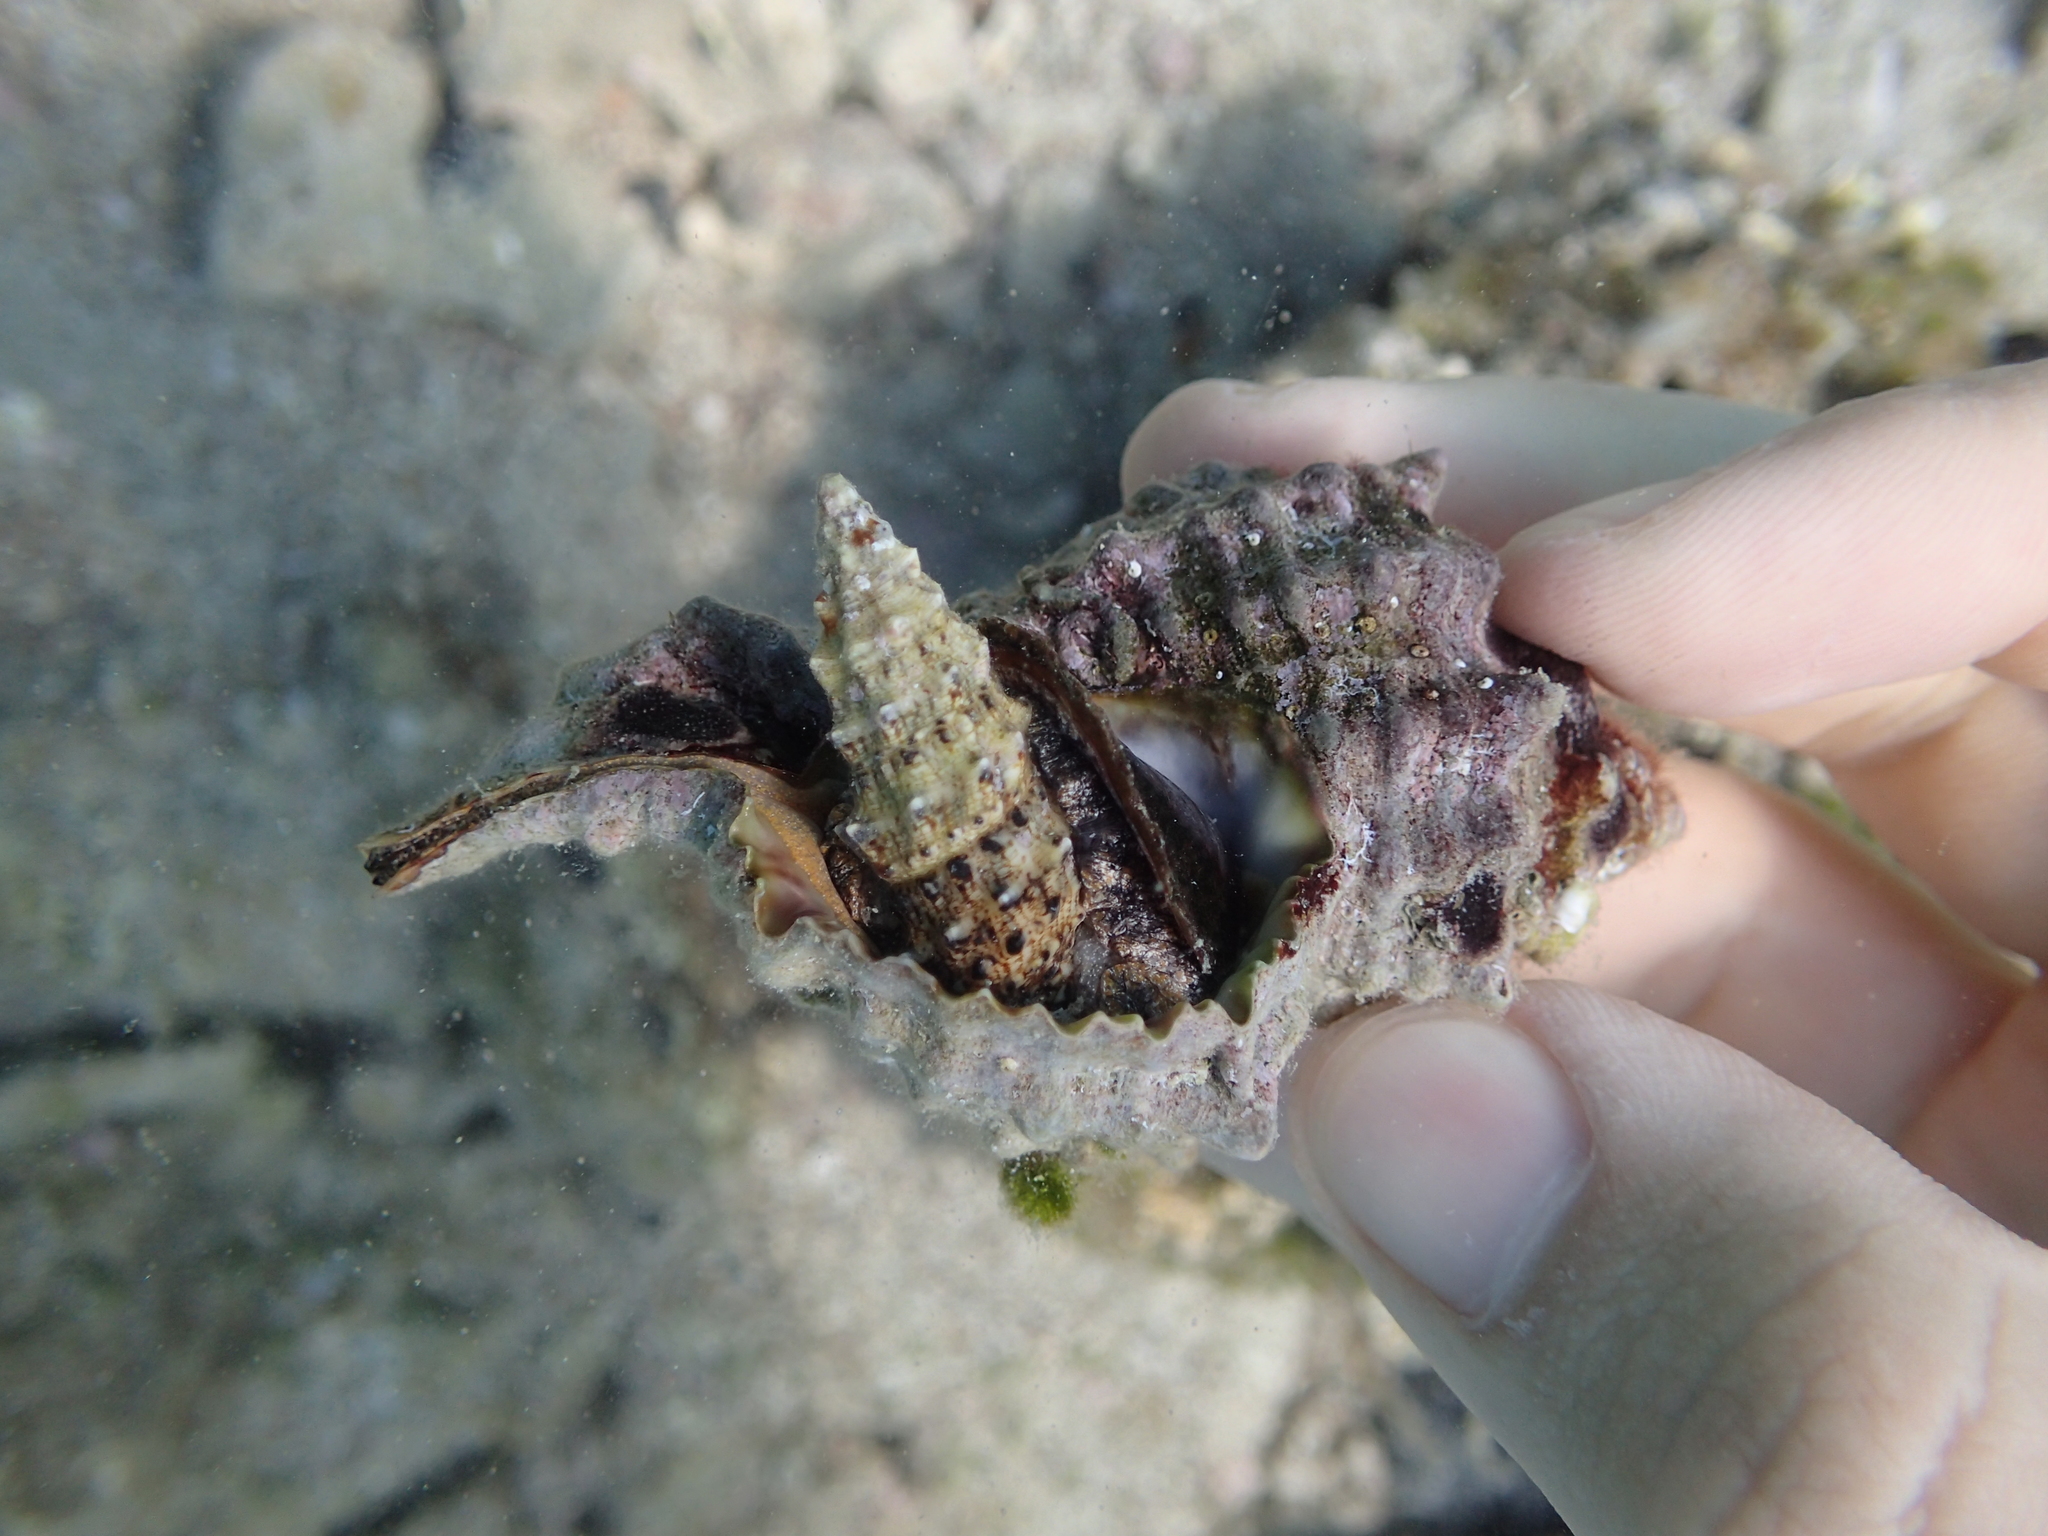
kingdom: Animalia
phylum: Mollusca
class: Gastropoda
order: Neogastropoda
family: Muricidae
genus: Hexaplex
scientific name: Hexaplex trunculus
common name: Banded dye-murex
